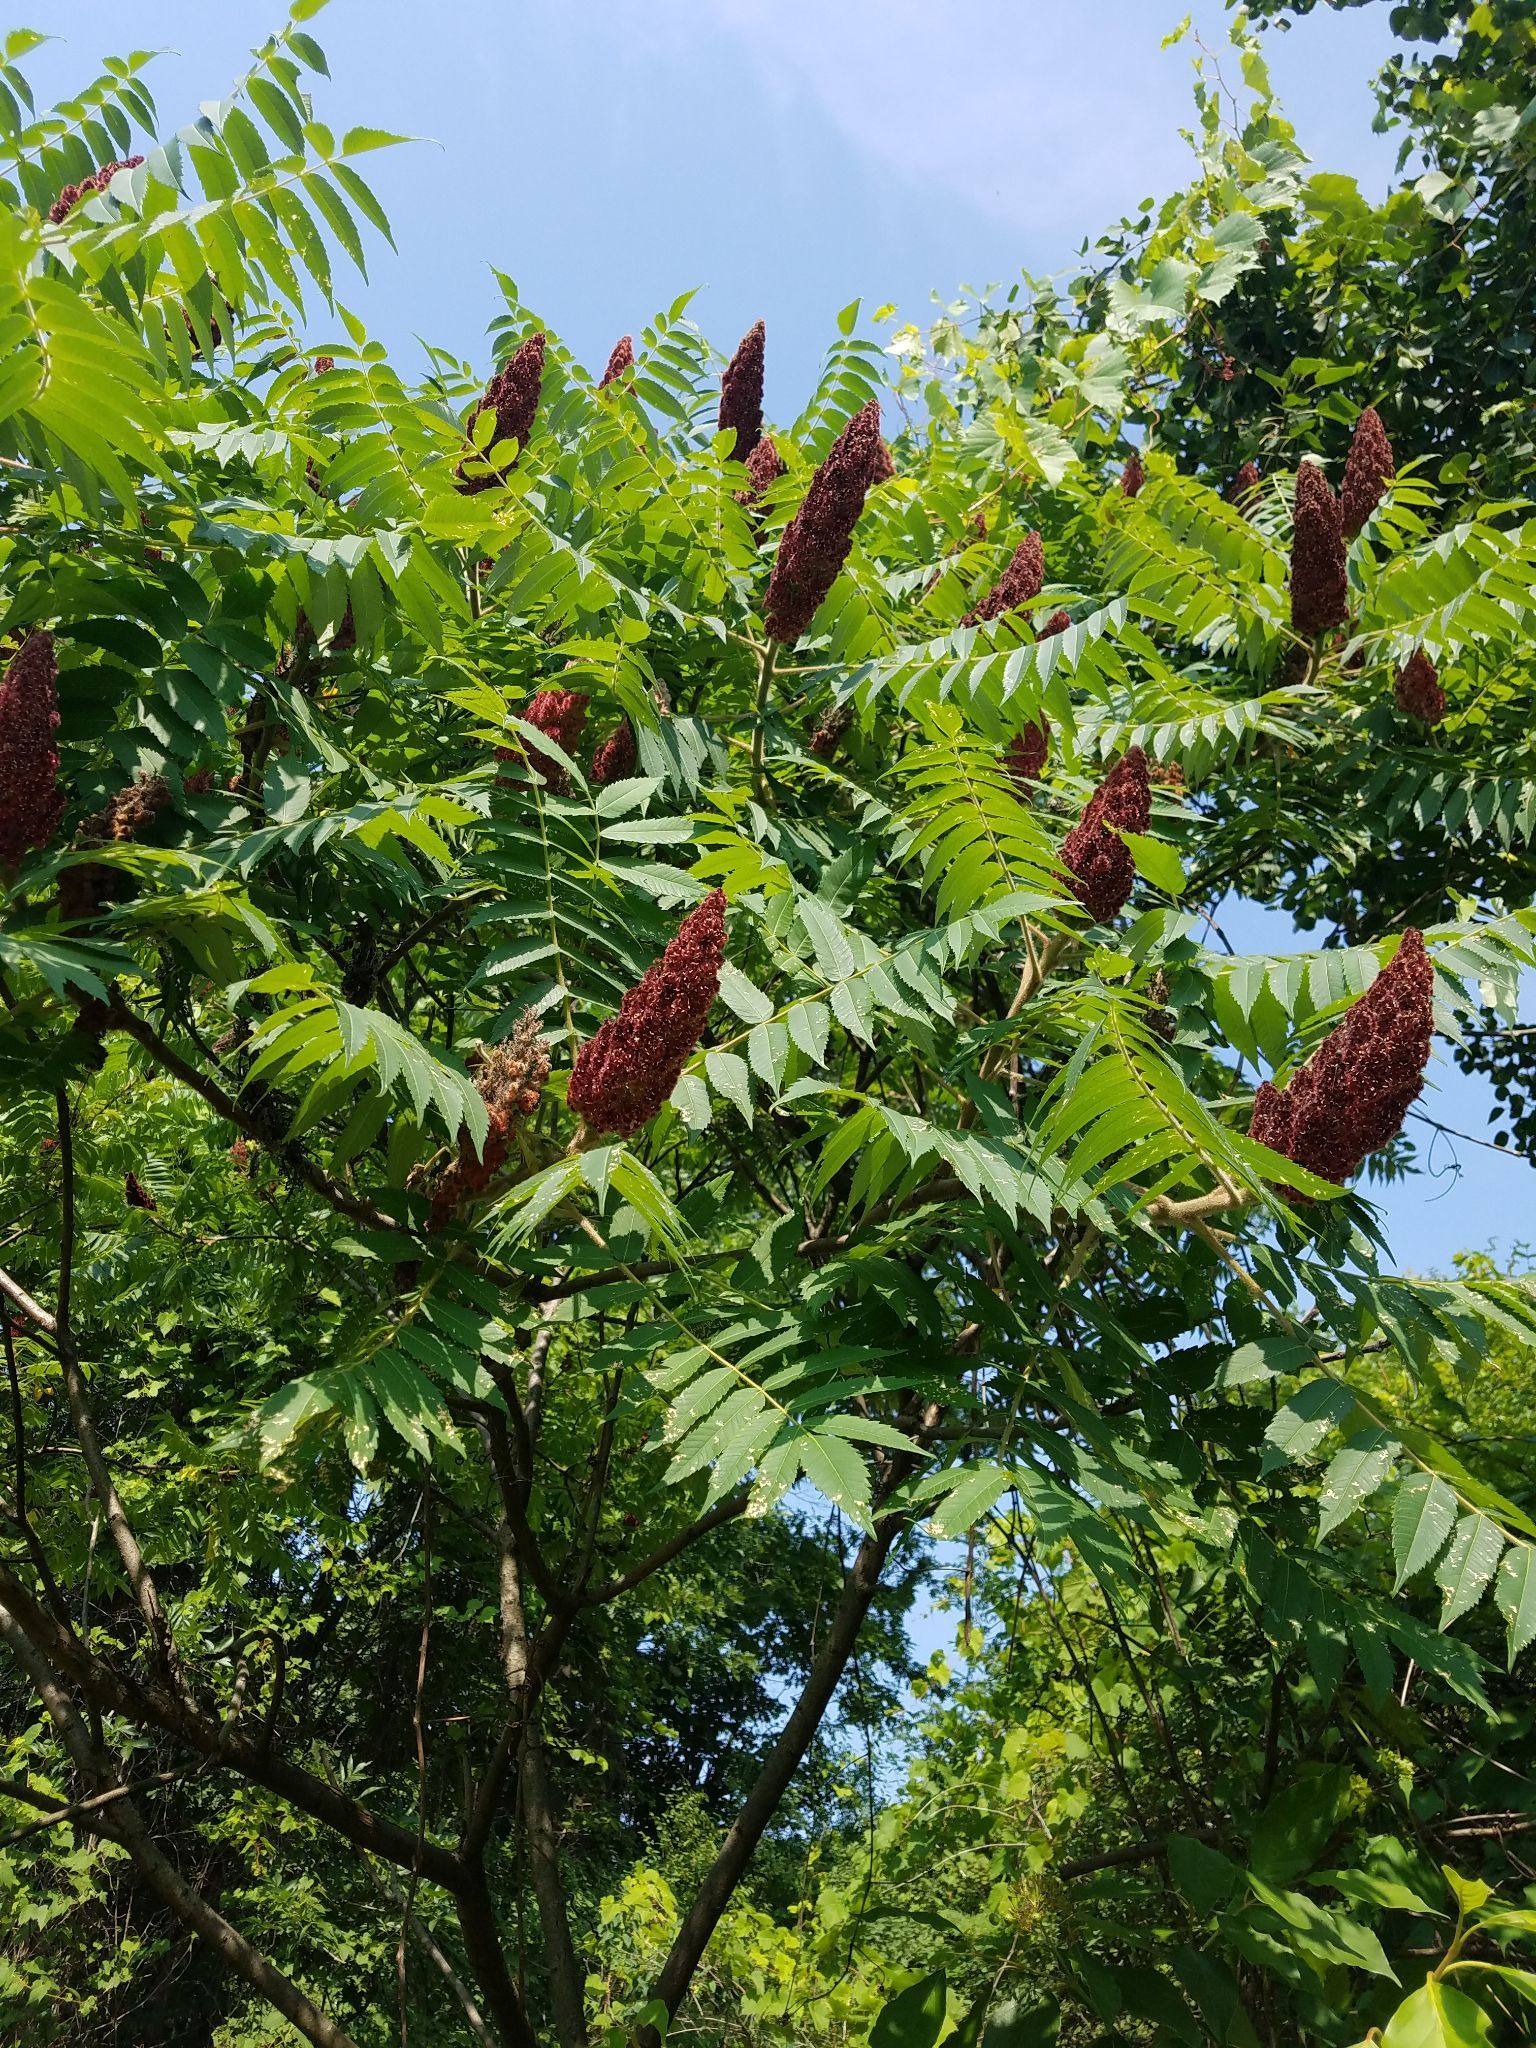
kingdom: Plantae
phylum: Tracheophyta
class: Magnoliopsida
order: Sapindales
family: Anacardiaceae
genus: Rhus
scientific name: Rhus typhina
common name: Staghorn sumac
